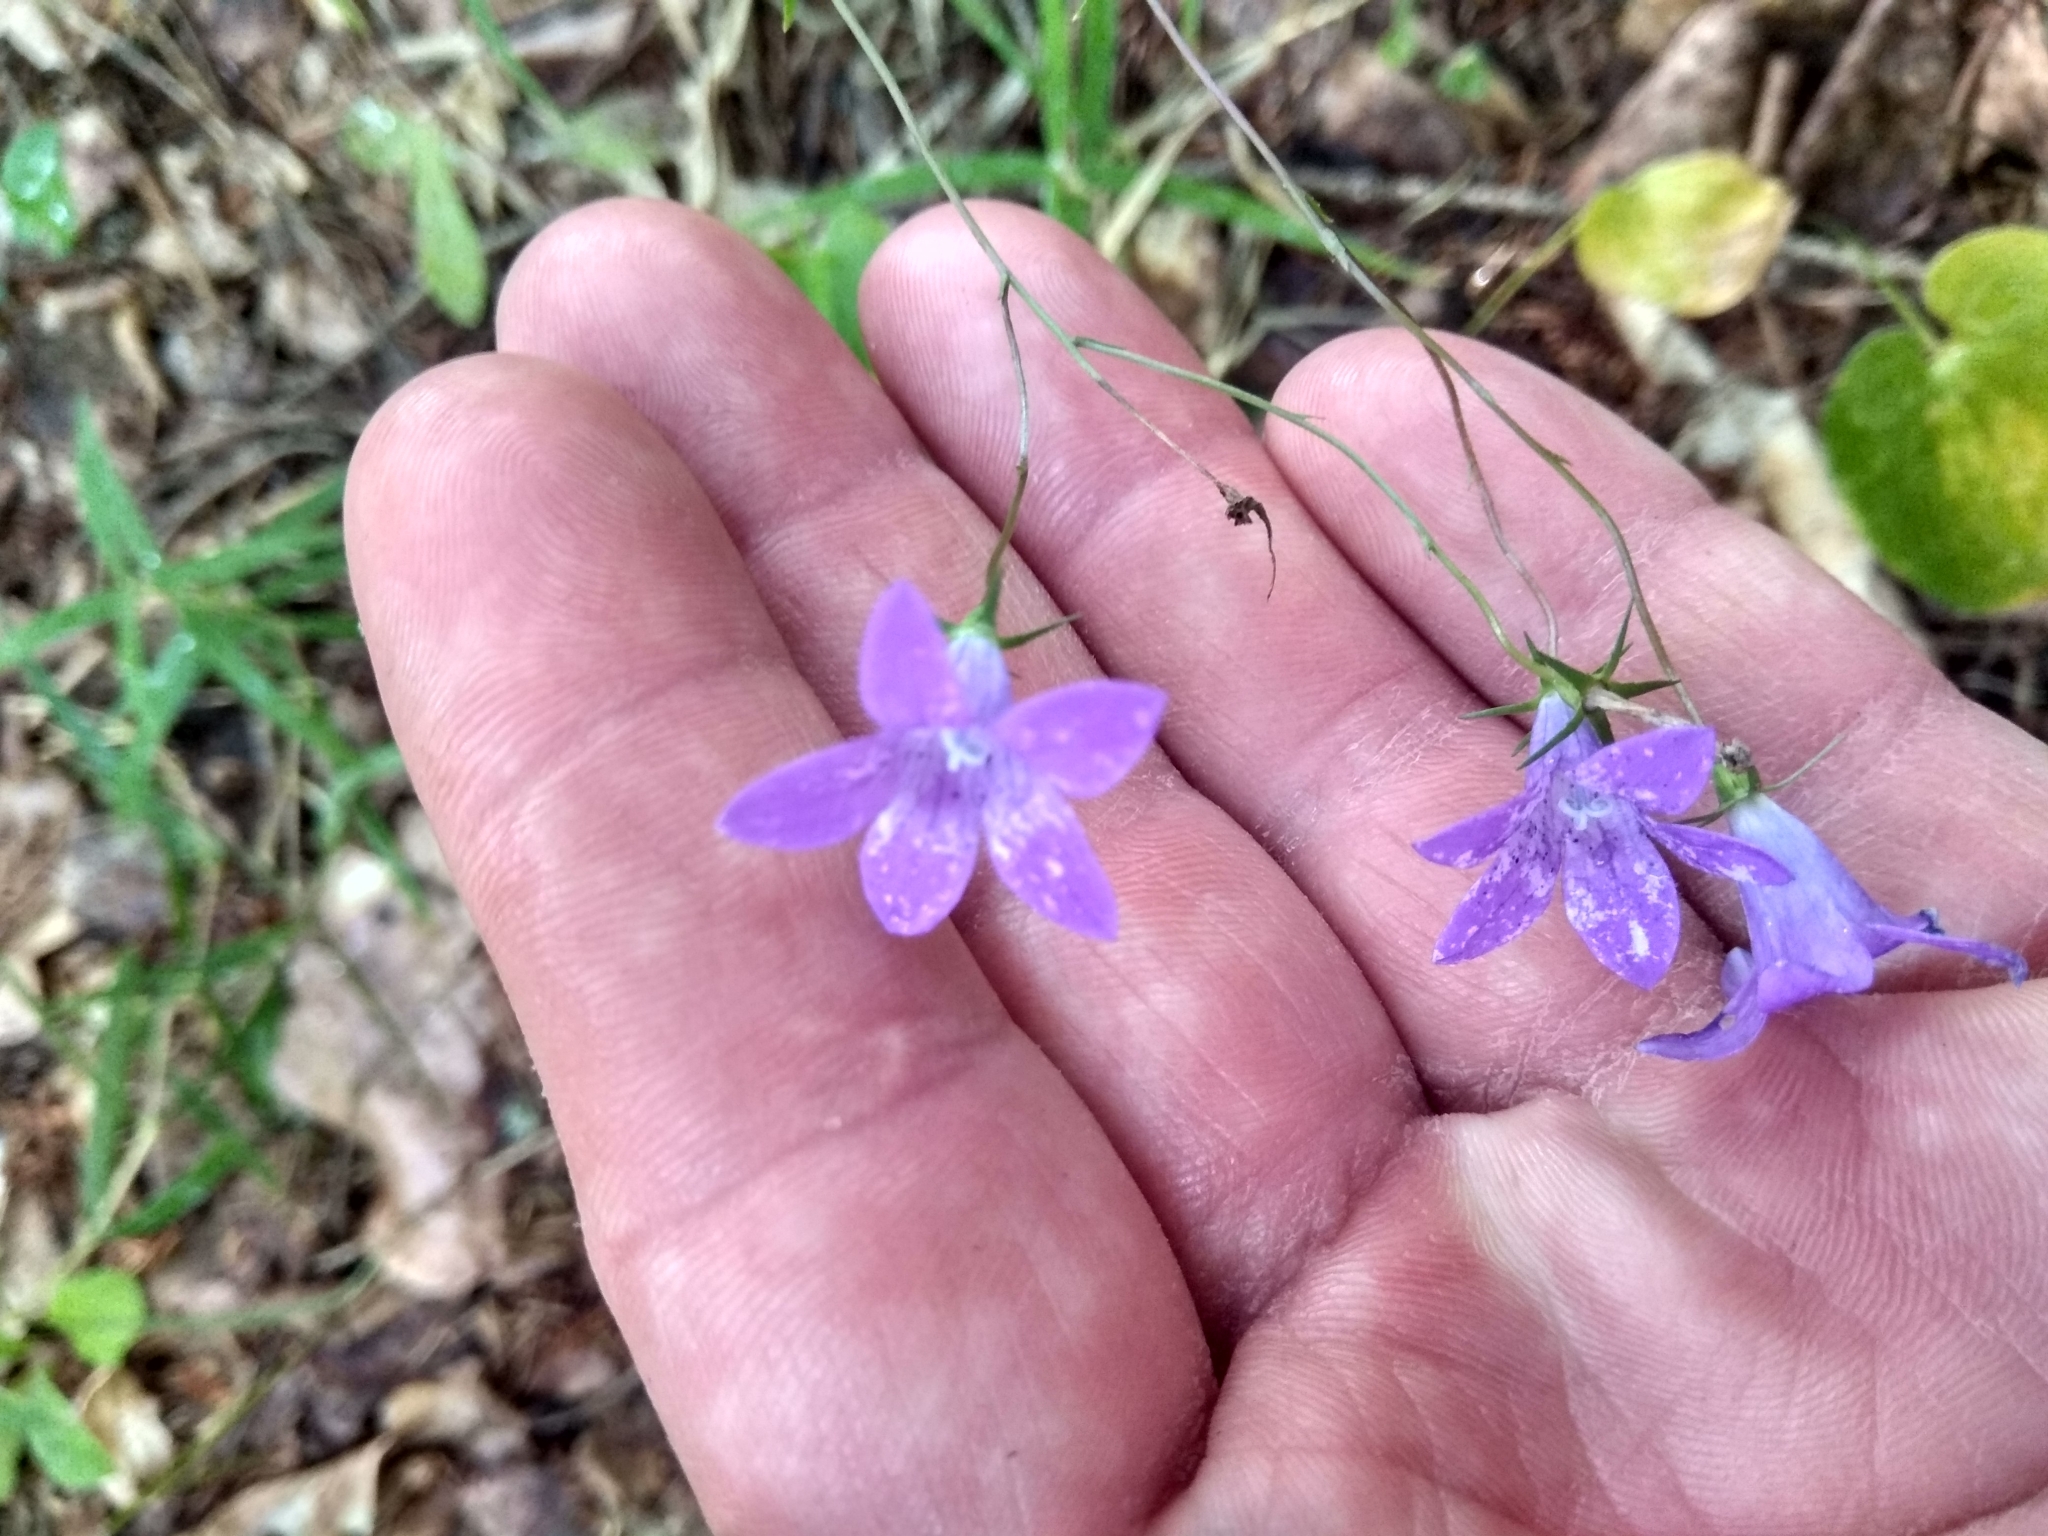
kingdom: Plantae
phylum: Tracheophyta
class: Magnoliopsida
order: Asterales
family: Campanulaceae
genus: Campanula
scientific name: Campanula patula
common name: Spreading bellflower
